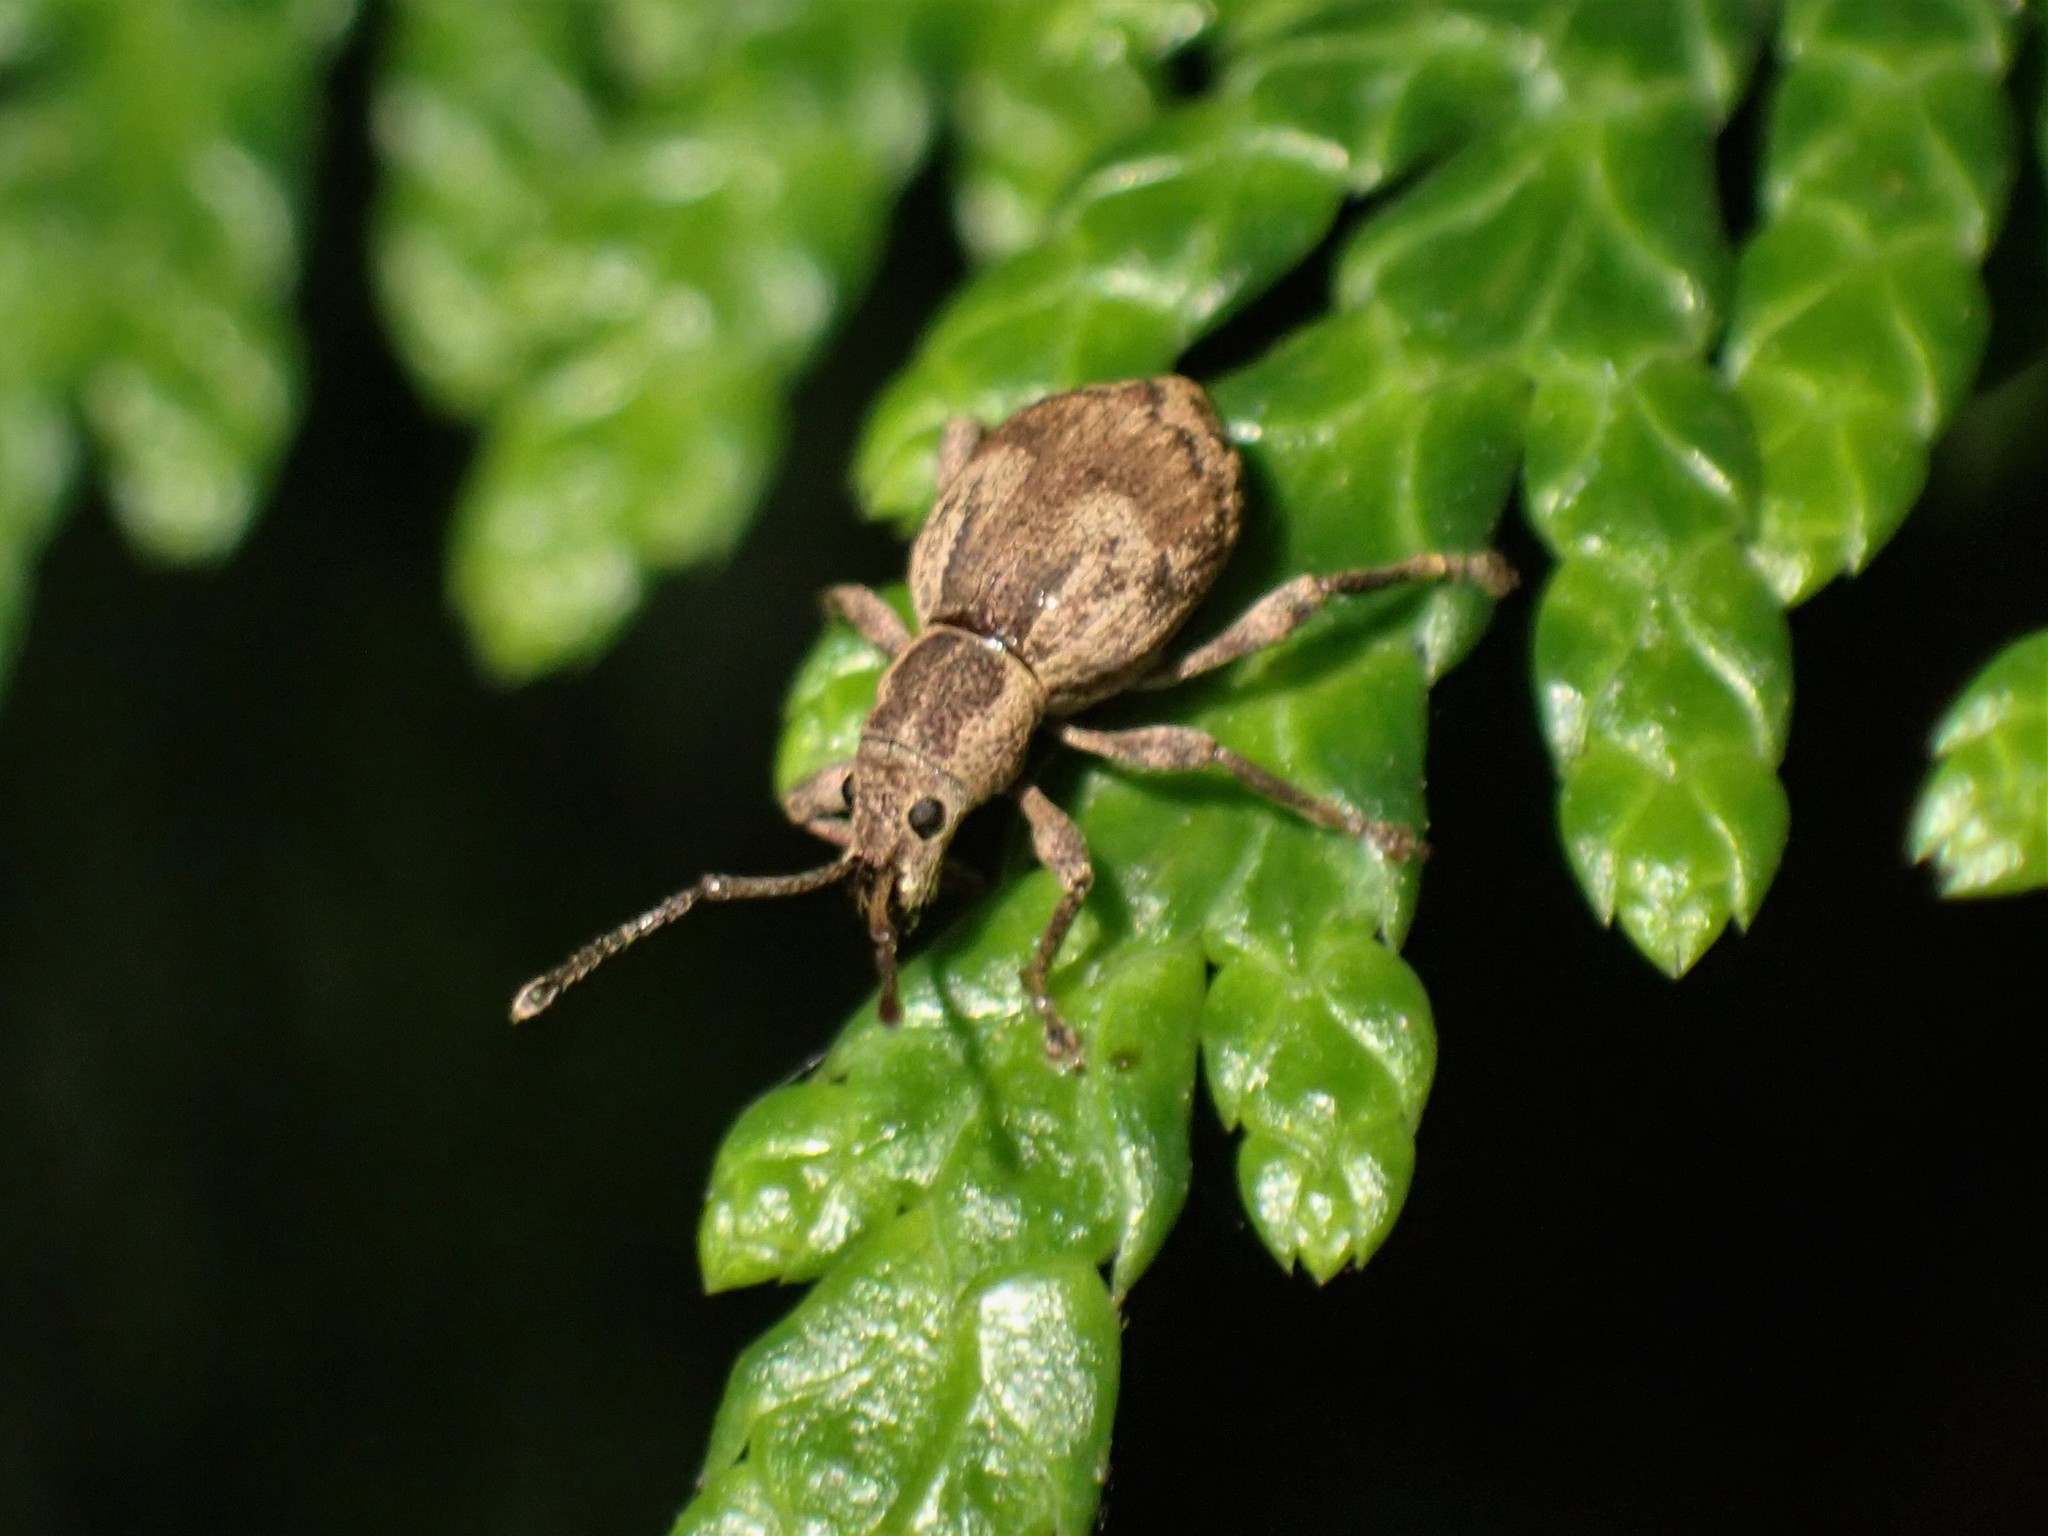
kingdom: Animalia
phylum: Arthropoda
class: Insecta
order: Coleoptera
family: Curculionidae
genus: Sciopithes
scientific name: Sciopithes obscurus
